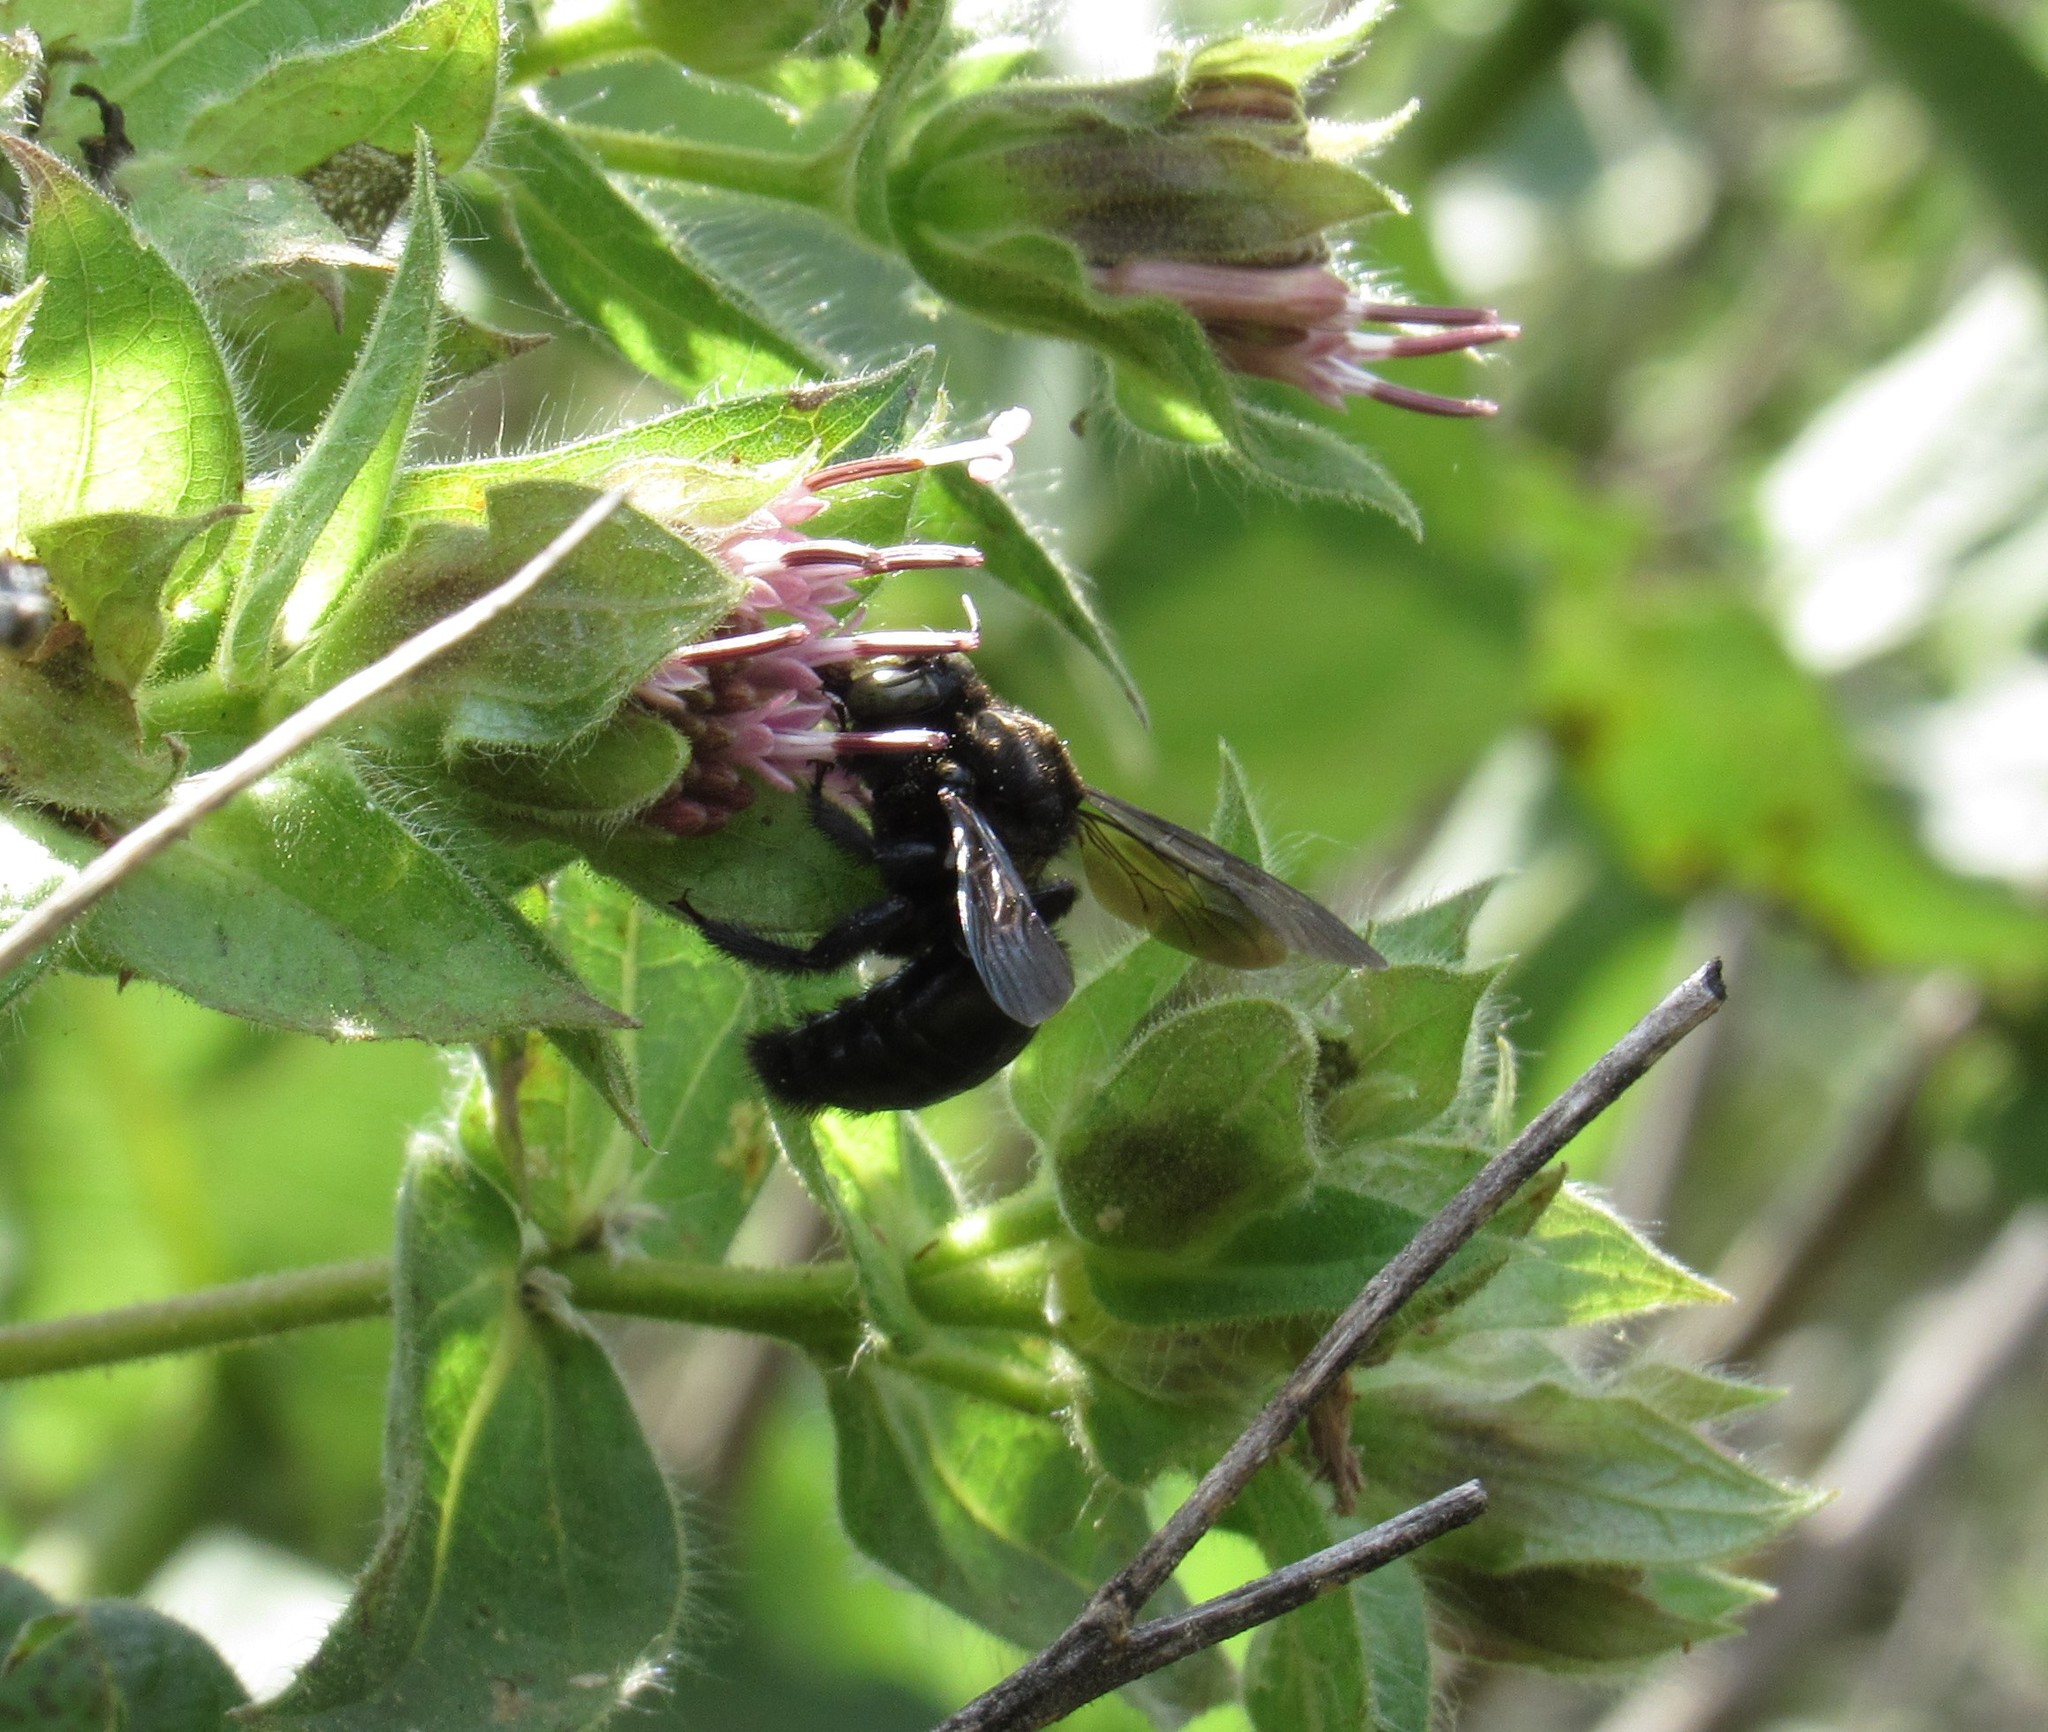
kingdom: Animalia
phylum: Arthropoda
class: Insecta
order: Hymenoptera
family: Apidae
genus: Xylocopa
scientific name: Xylocopa guatemalensis
